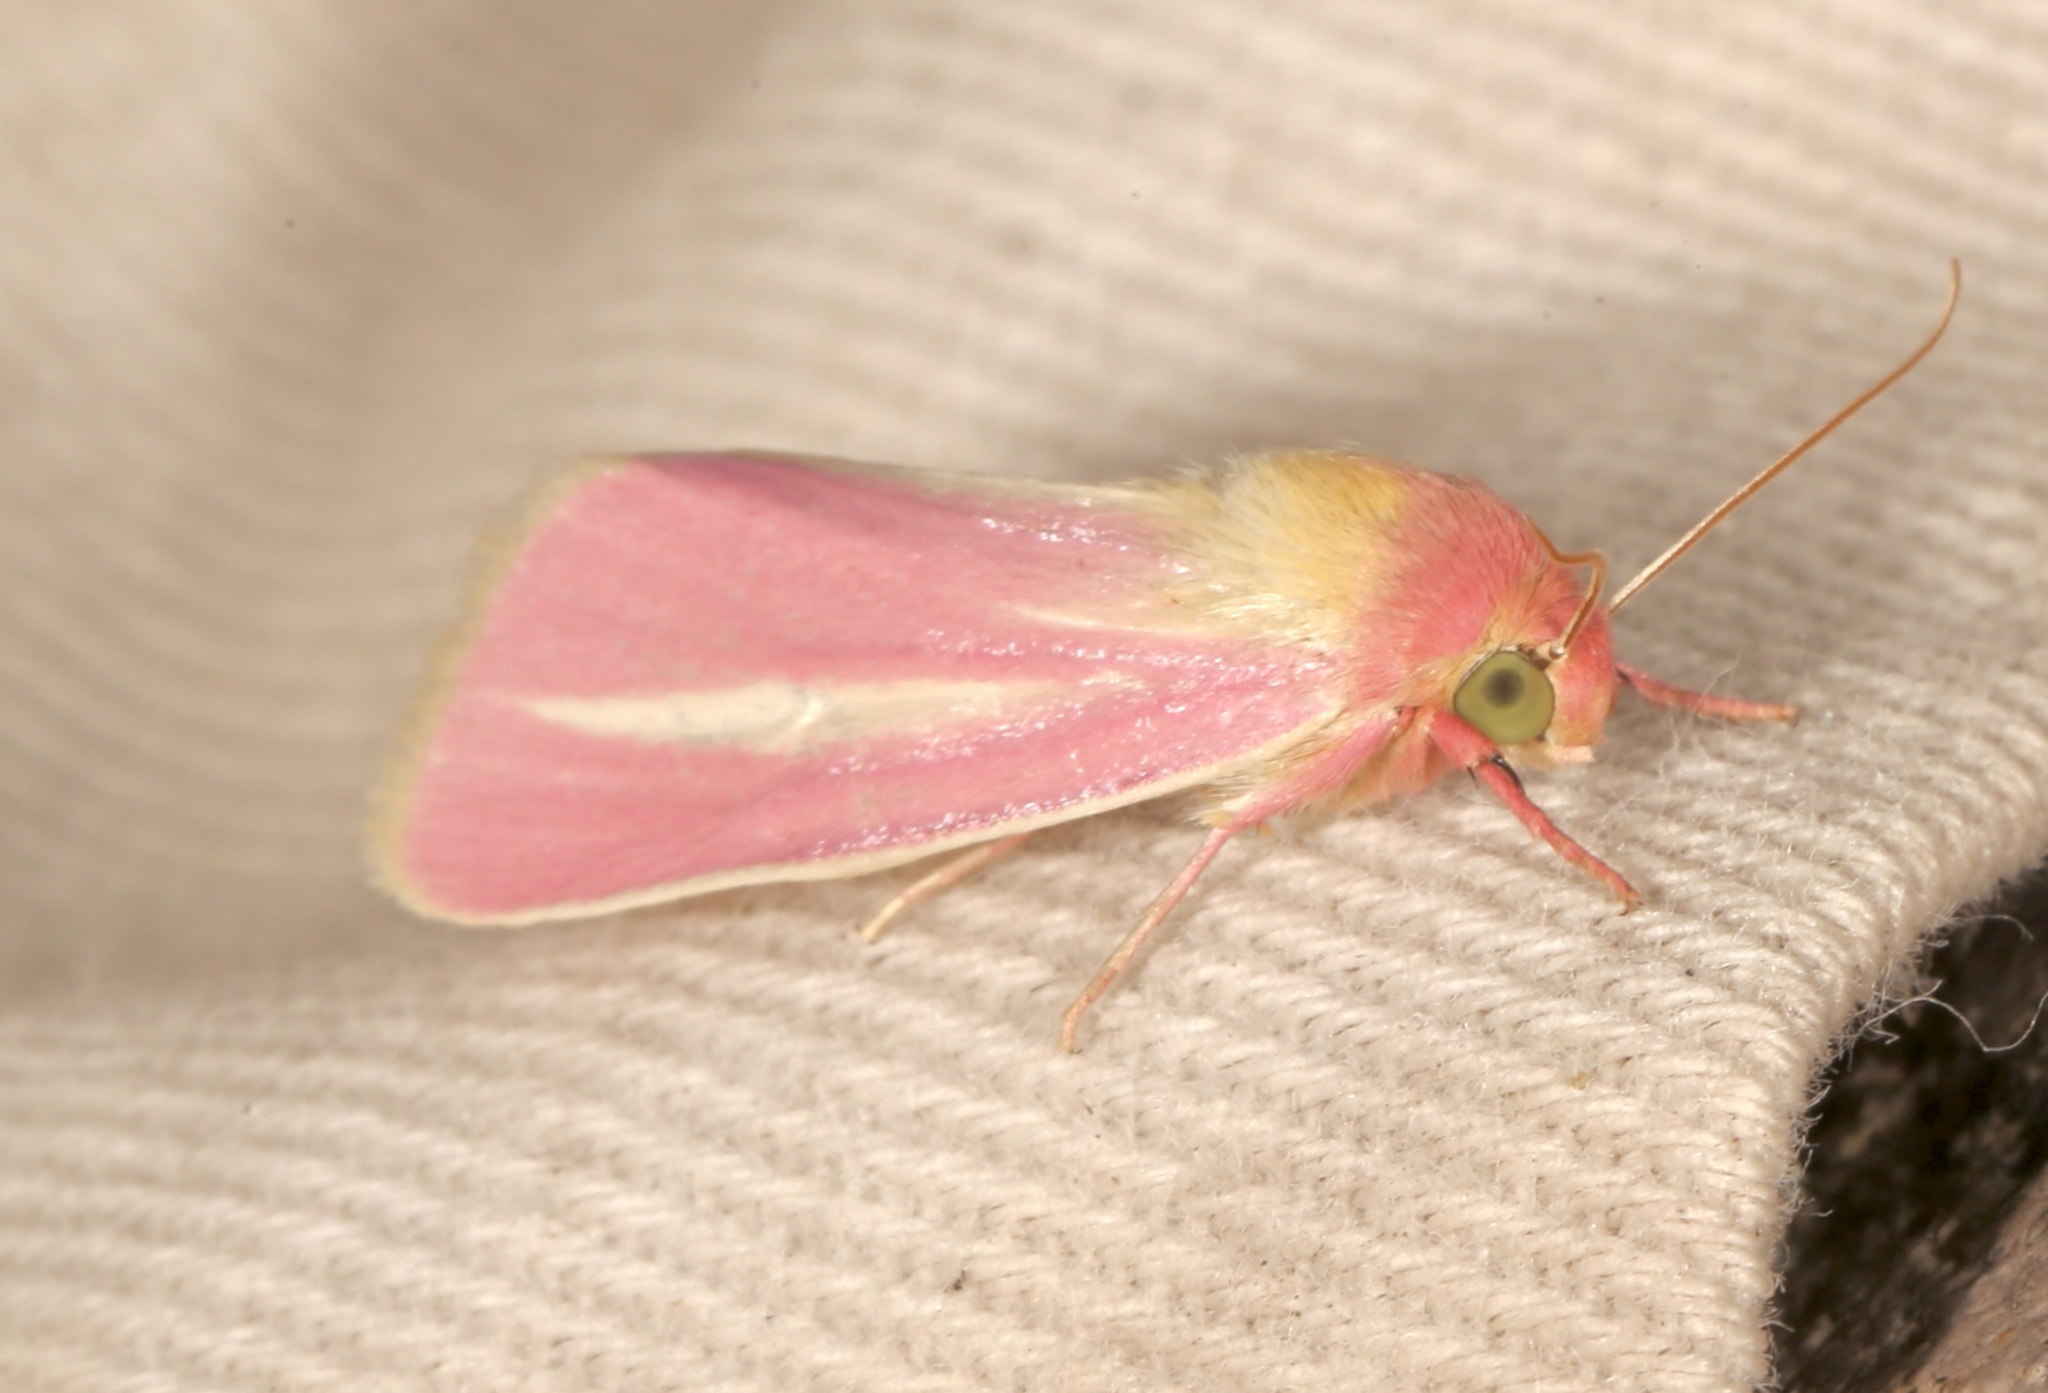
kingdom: Animalia
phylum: Arthropoda
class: Insecta
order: Lepidoptera
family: Noctuidae
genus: Heliocheilus
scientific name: Heliocheilus julia
